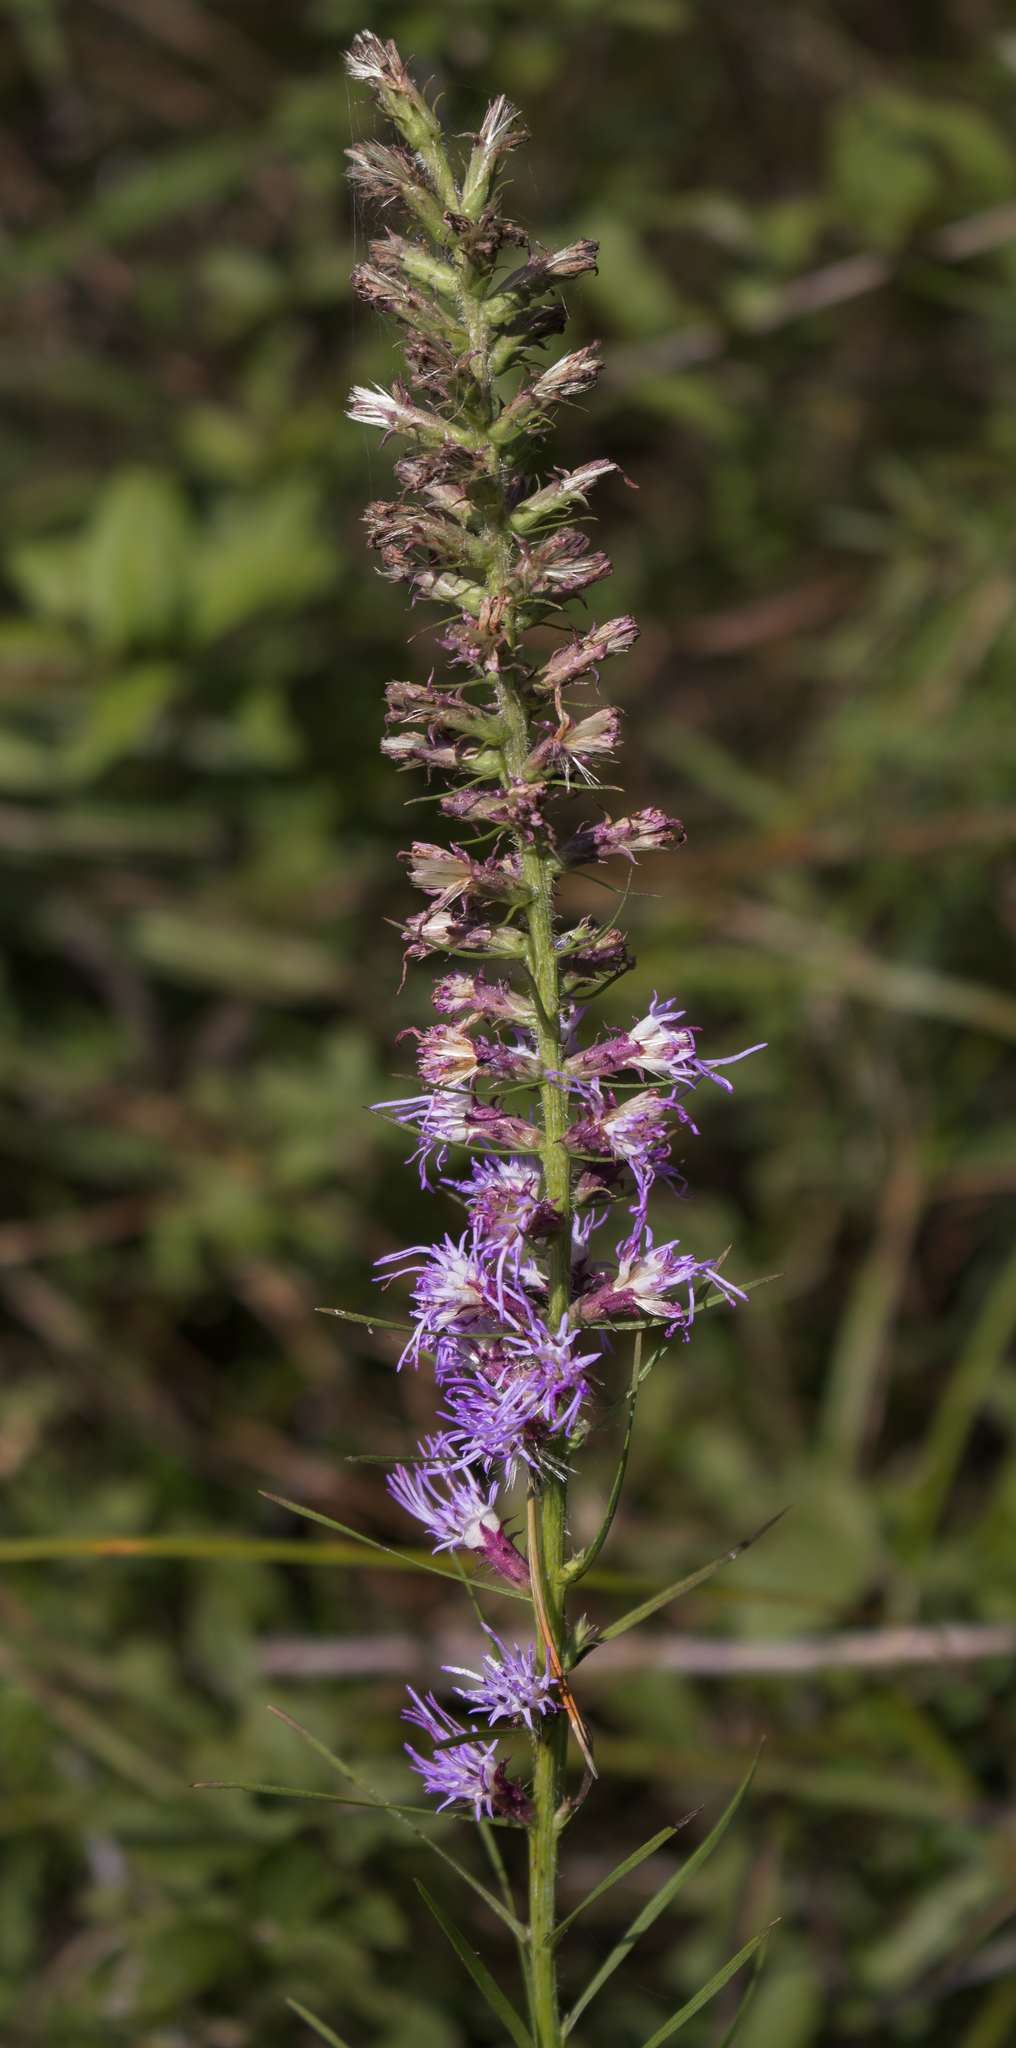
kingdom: Plantae
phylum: Tracheophyta
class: Magnoliopsida
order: Asterales
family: Asteraceae
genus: Liatris
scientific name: Liatris pycnostachya
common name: Cattail gayfeather
